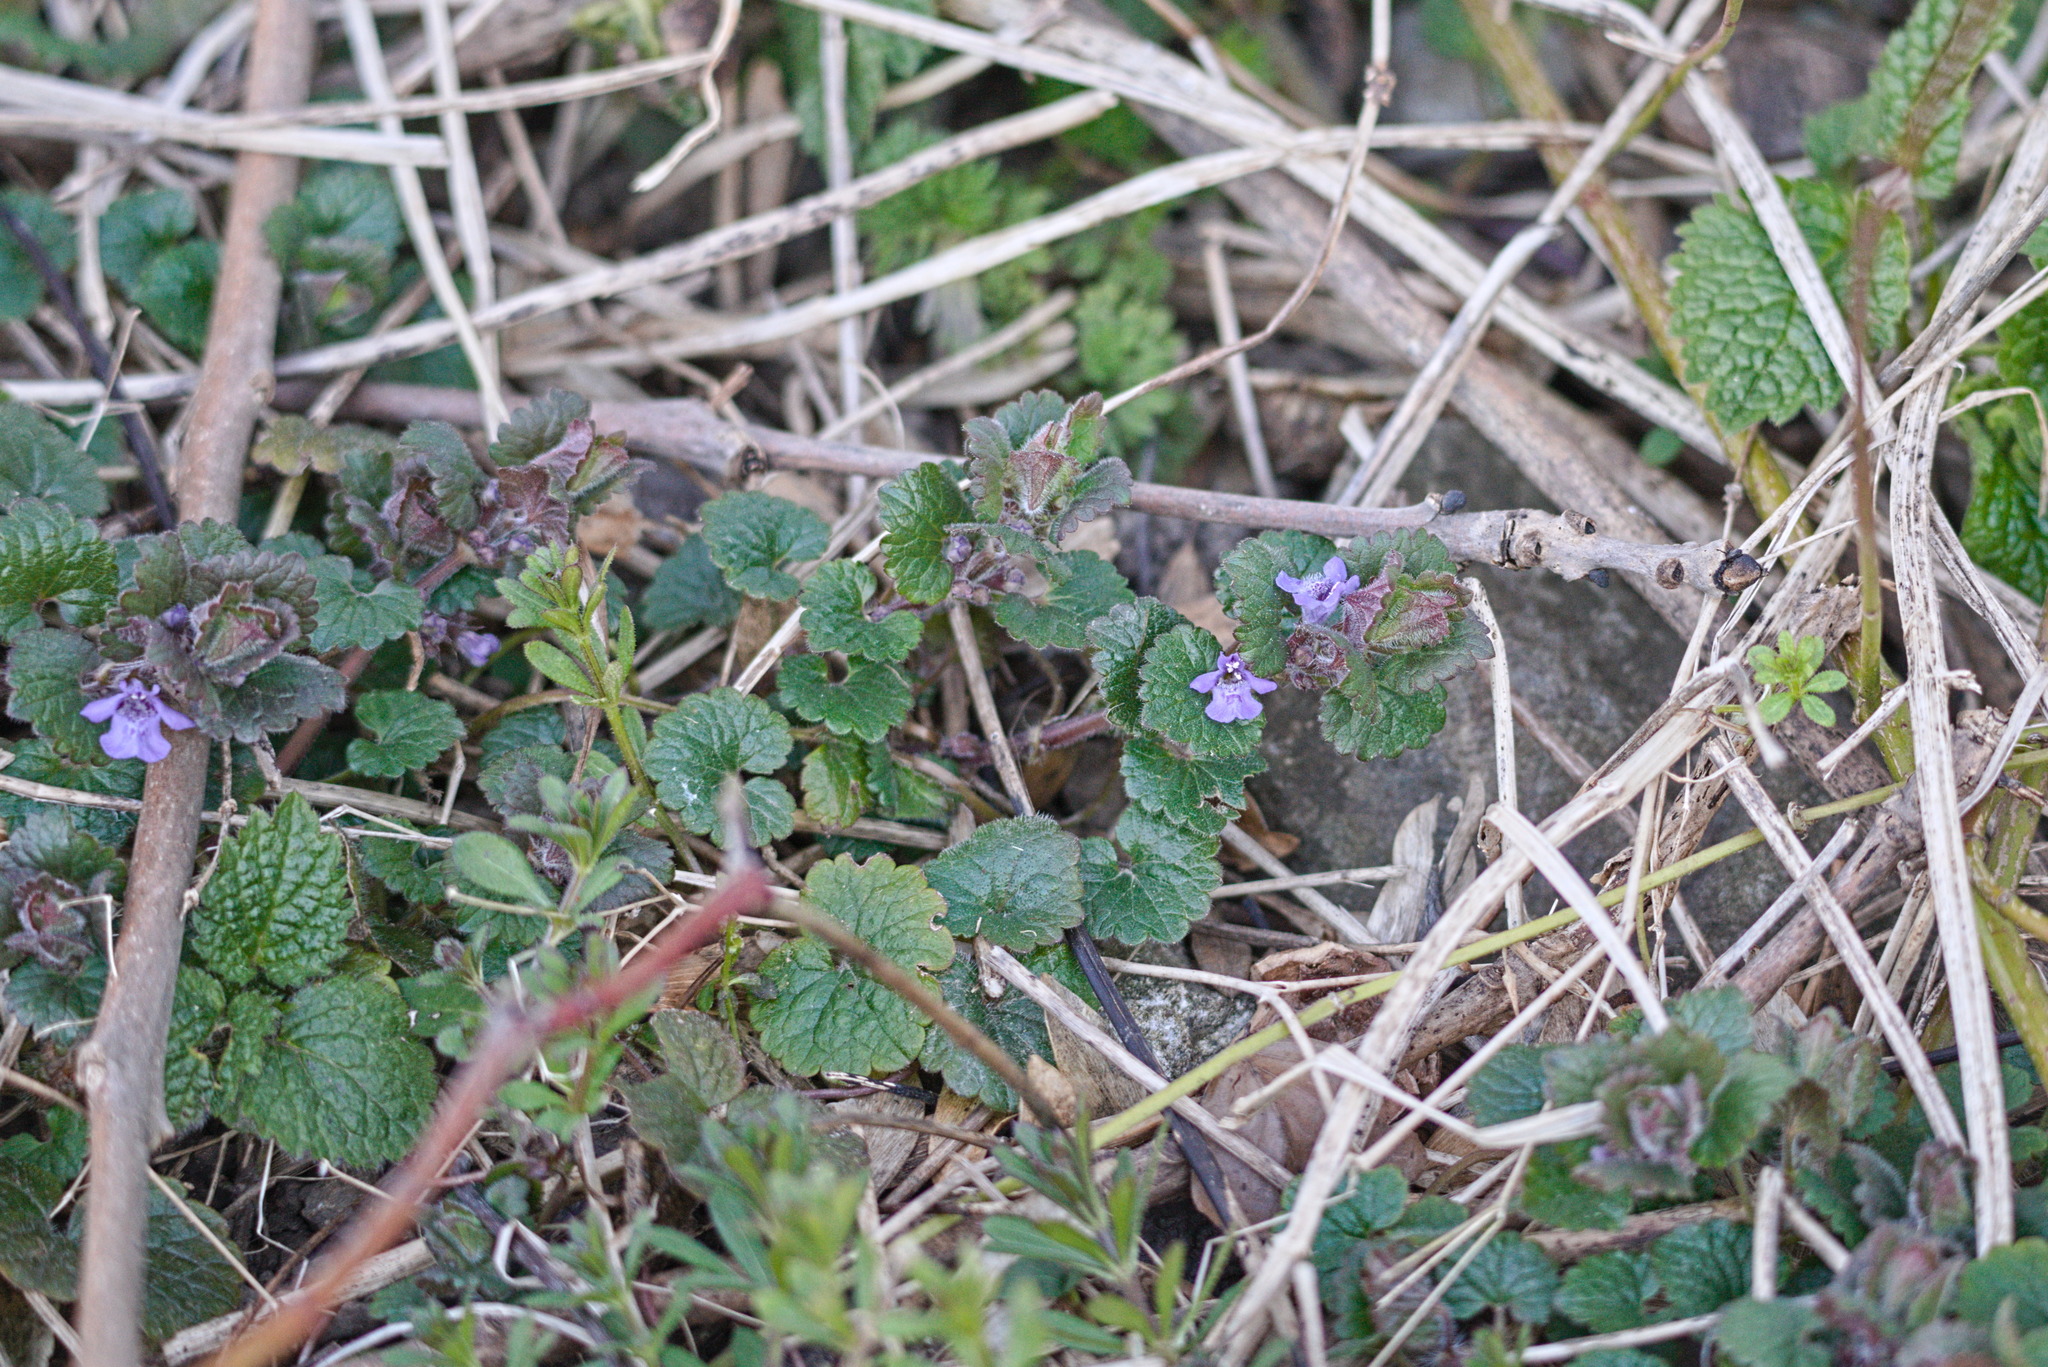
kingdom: Plantae
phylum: Tracheophyta
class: Magnoliopsida
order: Lamiales
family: Lamiaceae
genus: Glechoma
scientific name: Glechoma hederacea
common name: Ground ivy
